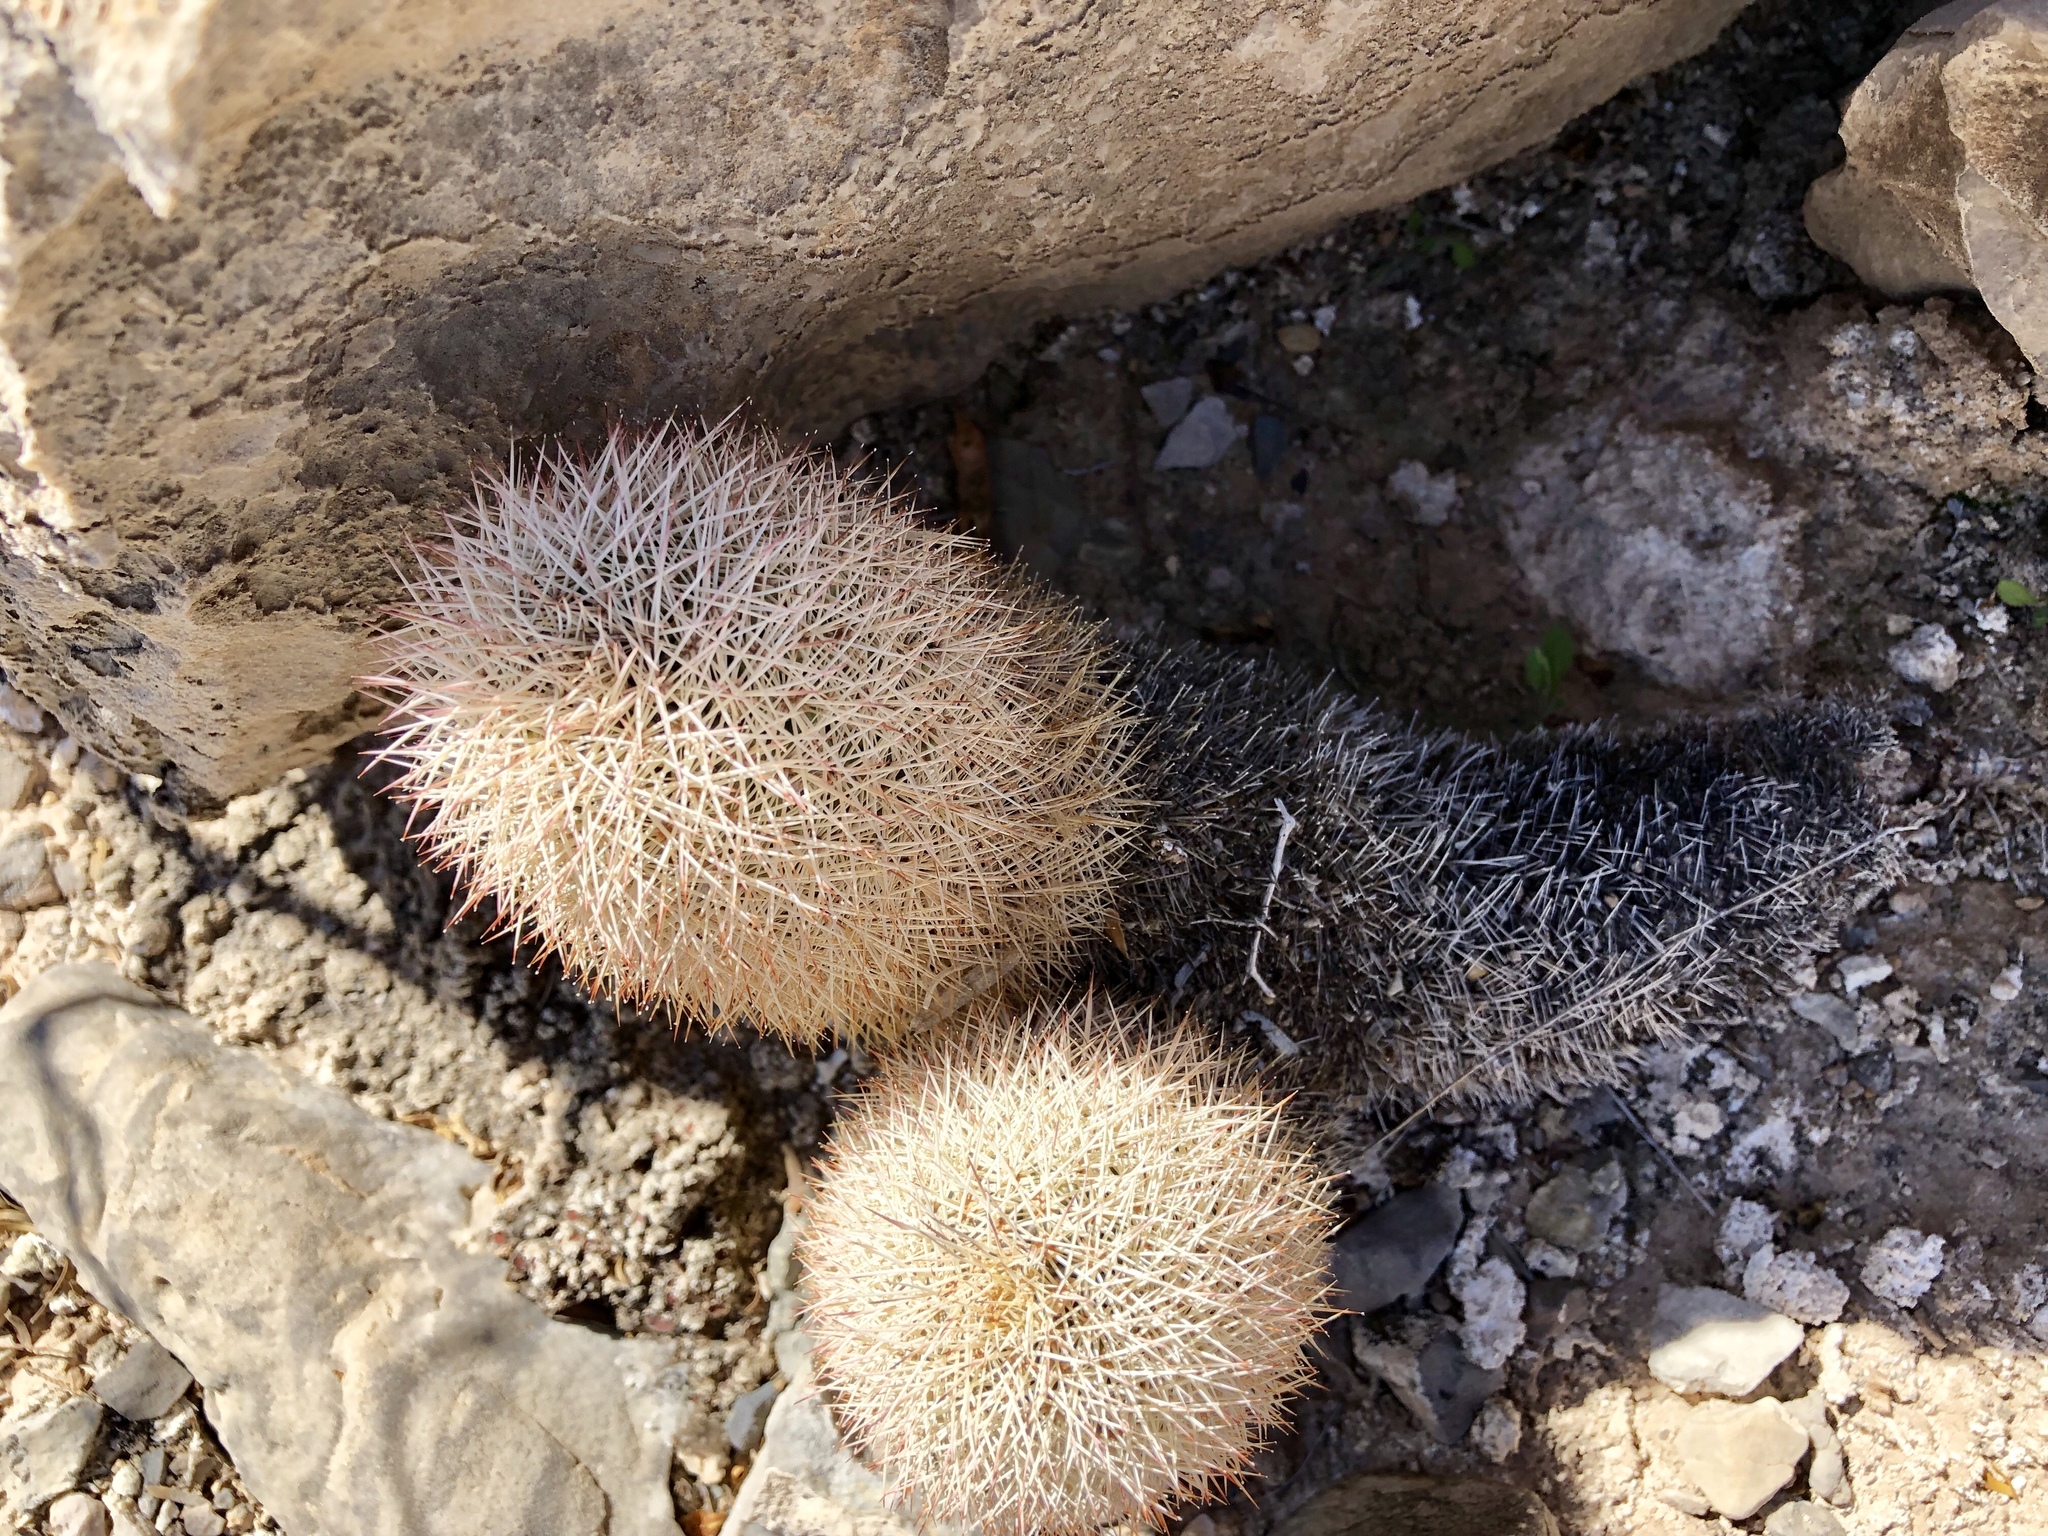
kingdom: Plantae
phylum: Tracheophyta
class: Magnoliopsida
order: Caryophyllales
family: Cactaceae
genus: Echinocereus
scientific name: Echinocereus dasyacanthus
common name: Spiny hedgehog cactus
